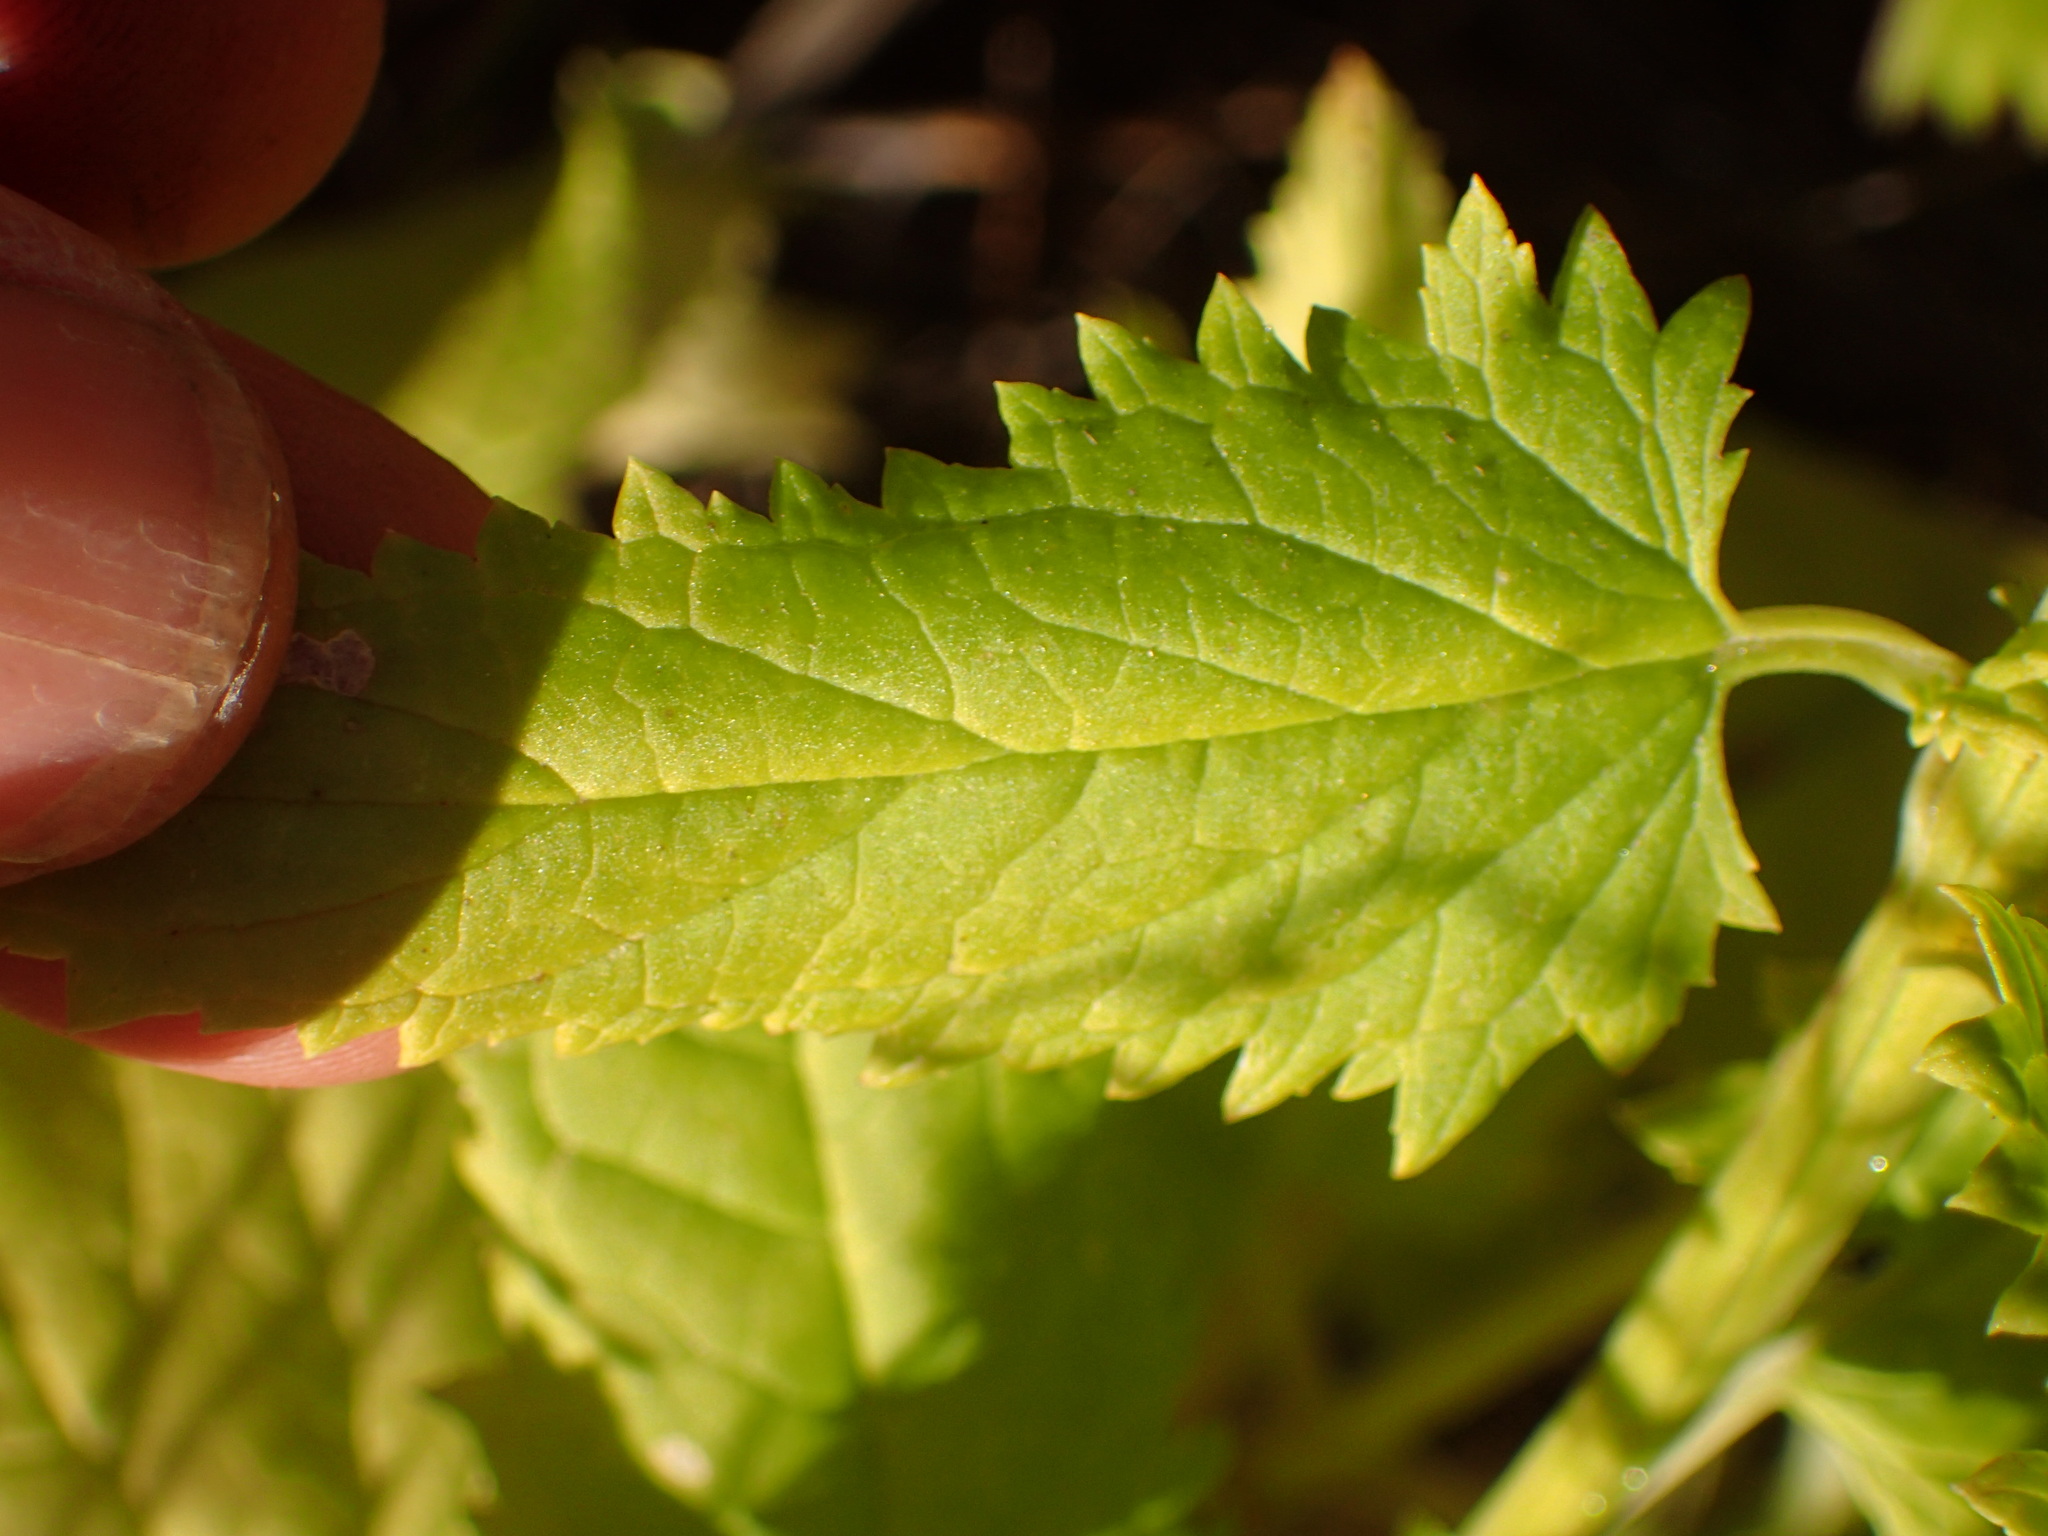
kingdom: Plantae
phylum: Tracheophyta
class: Magnoliopsida
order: Lamiales
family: Scrophulariaceae
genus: Scrophularia
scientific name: Scrophularia californica
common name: California figwort
